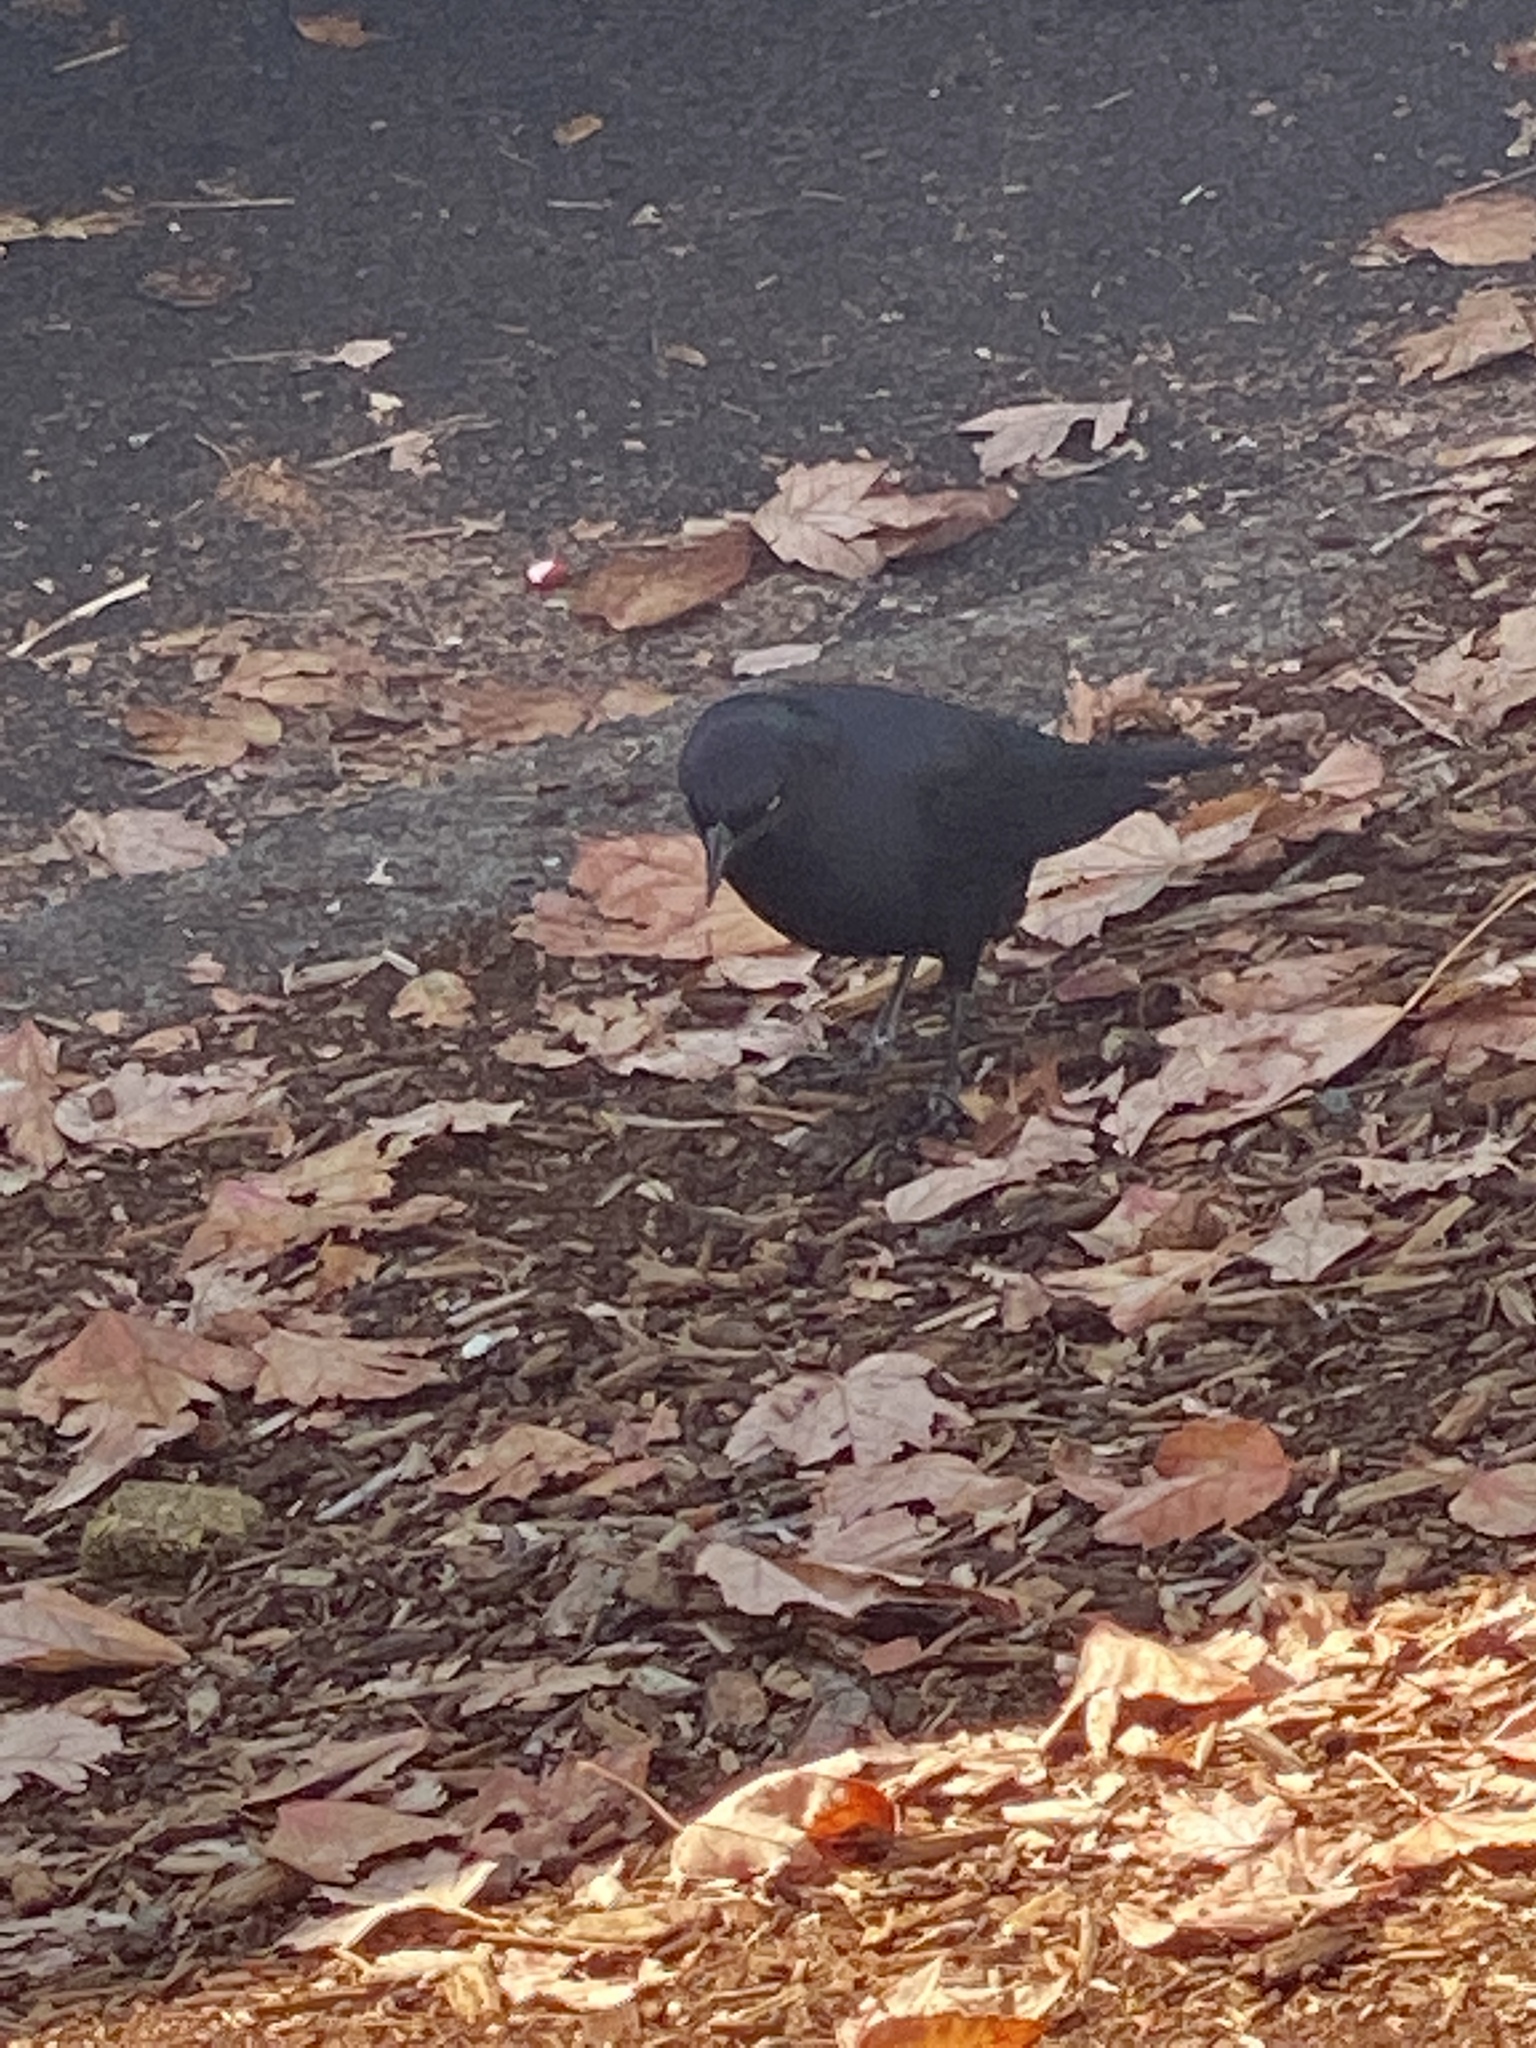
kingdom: Animalia
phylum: Chordata
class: Aves
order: Passeriformes
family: Icteridae
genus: Euphagus
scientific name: Euphagus cyanocephalus
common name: Brewer's blackbird
